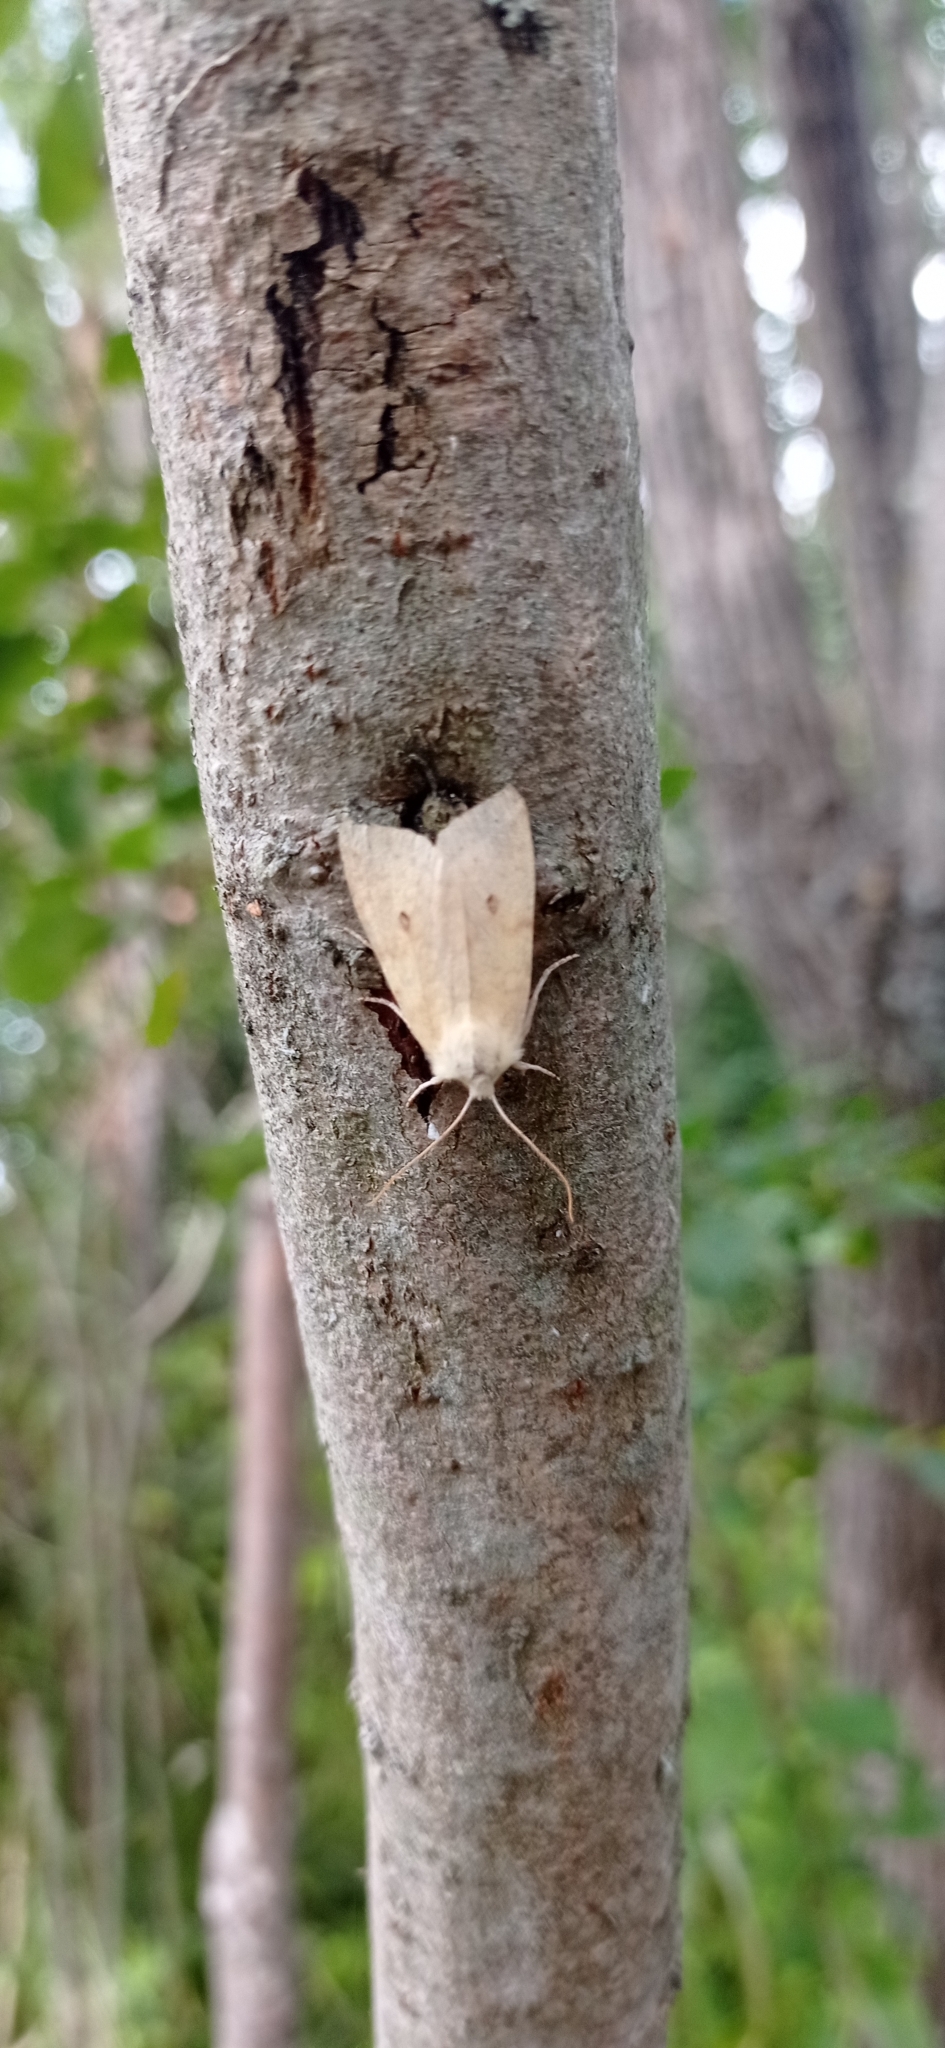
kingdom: Animalia
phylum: Arthropoda
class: Insecta
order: Lepidoptera
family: Noctuidae
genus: Xanthia
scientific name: Xanthia icteritia
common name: The sallow
